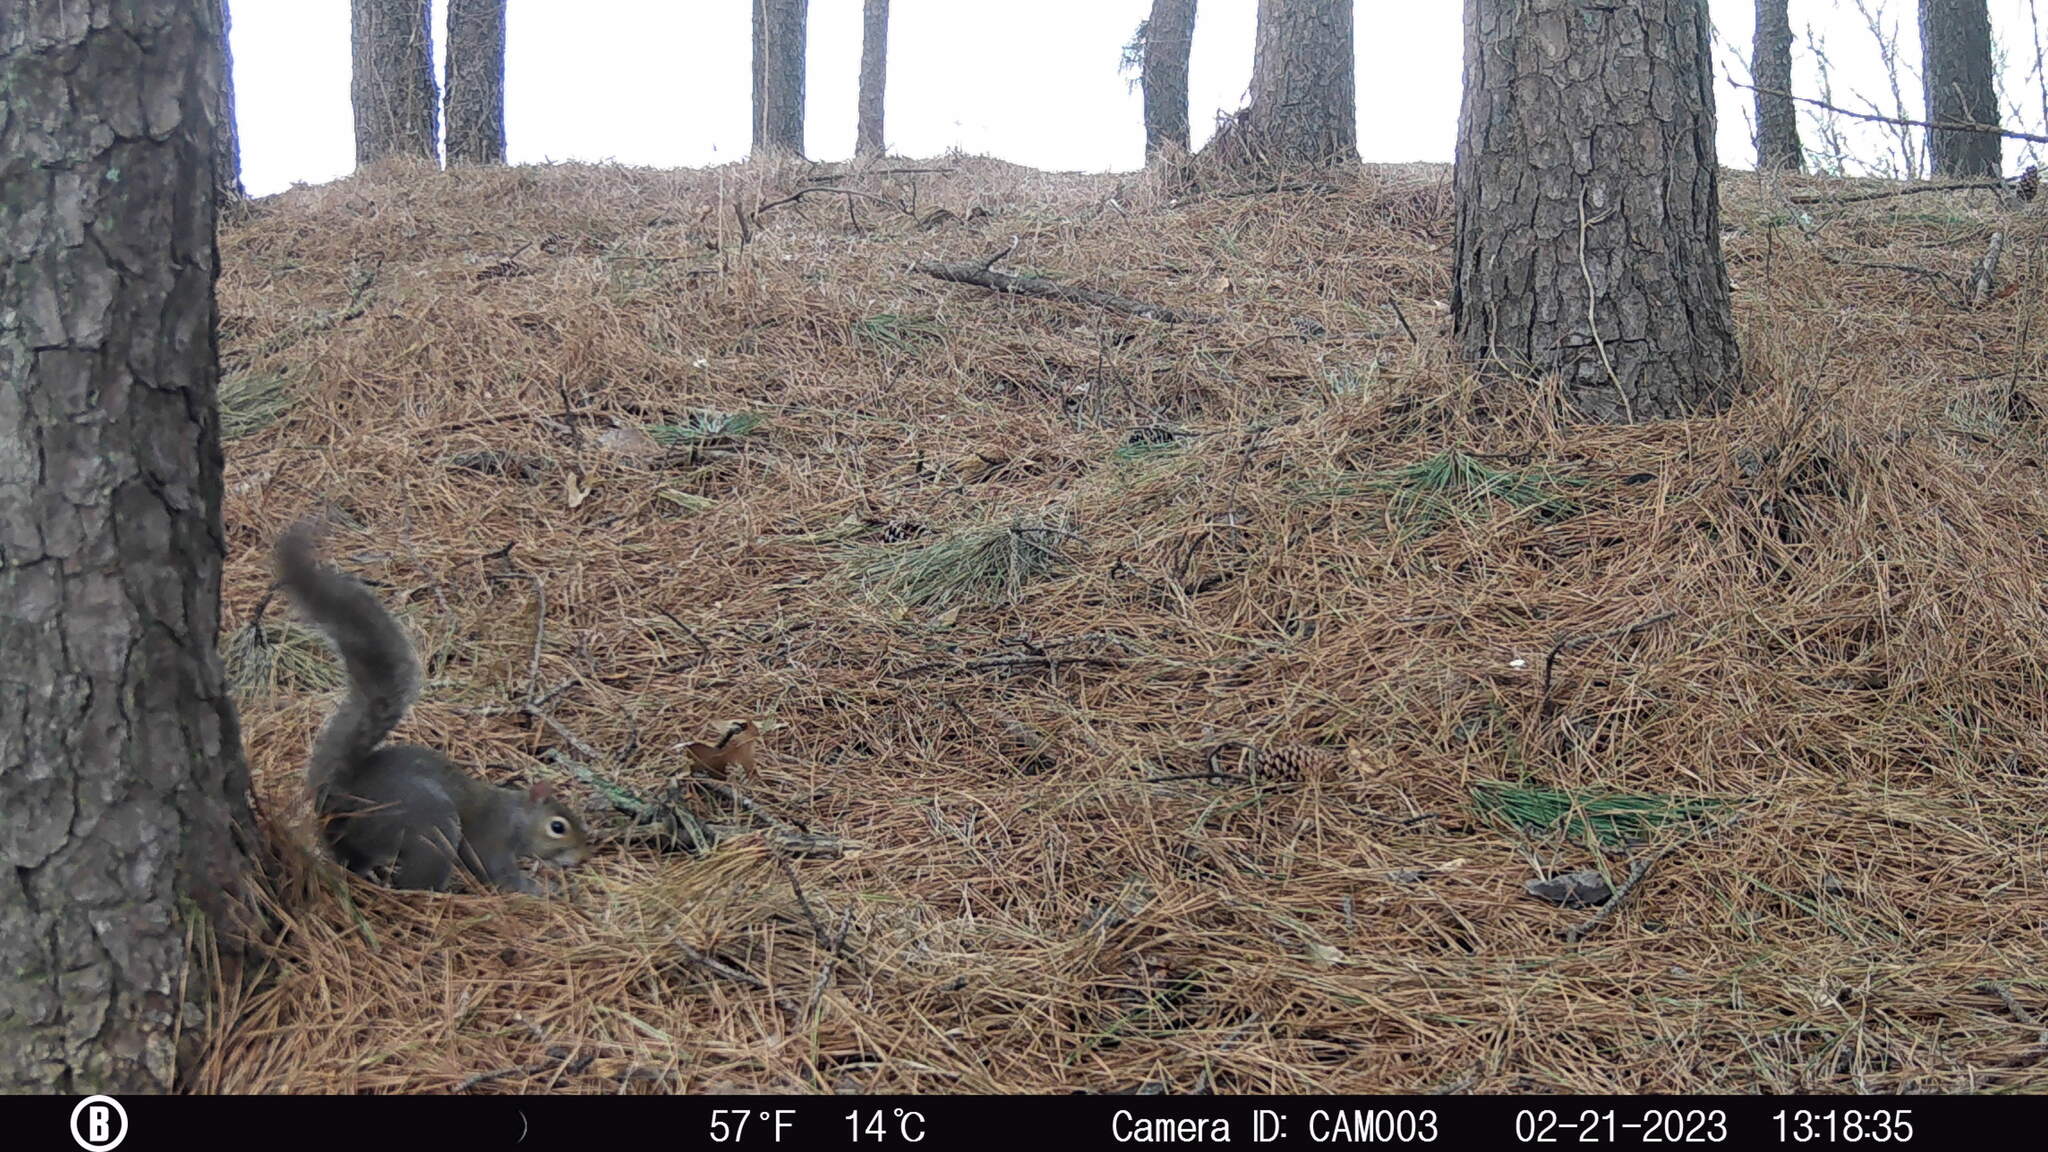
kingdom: Animalia
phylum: Chordata
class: Mammalia
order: Rodentia
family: Sciuridae
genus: Sciurus
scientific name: Sciurus carolinensis
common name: Eastern gray squirrel
